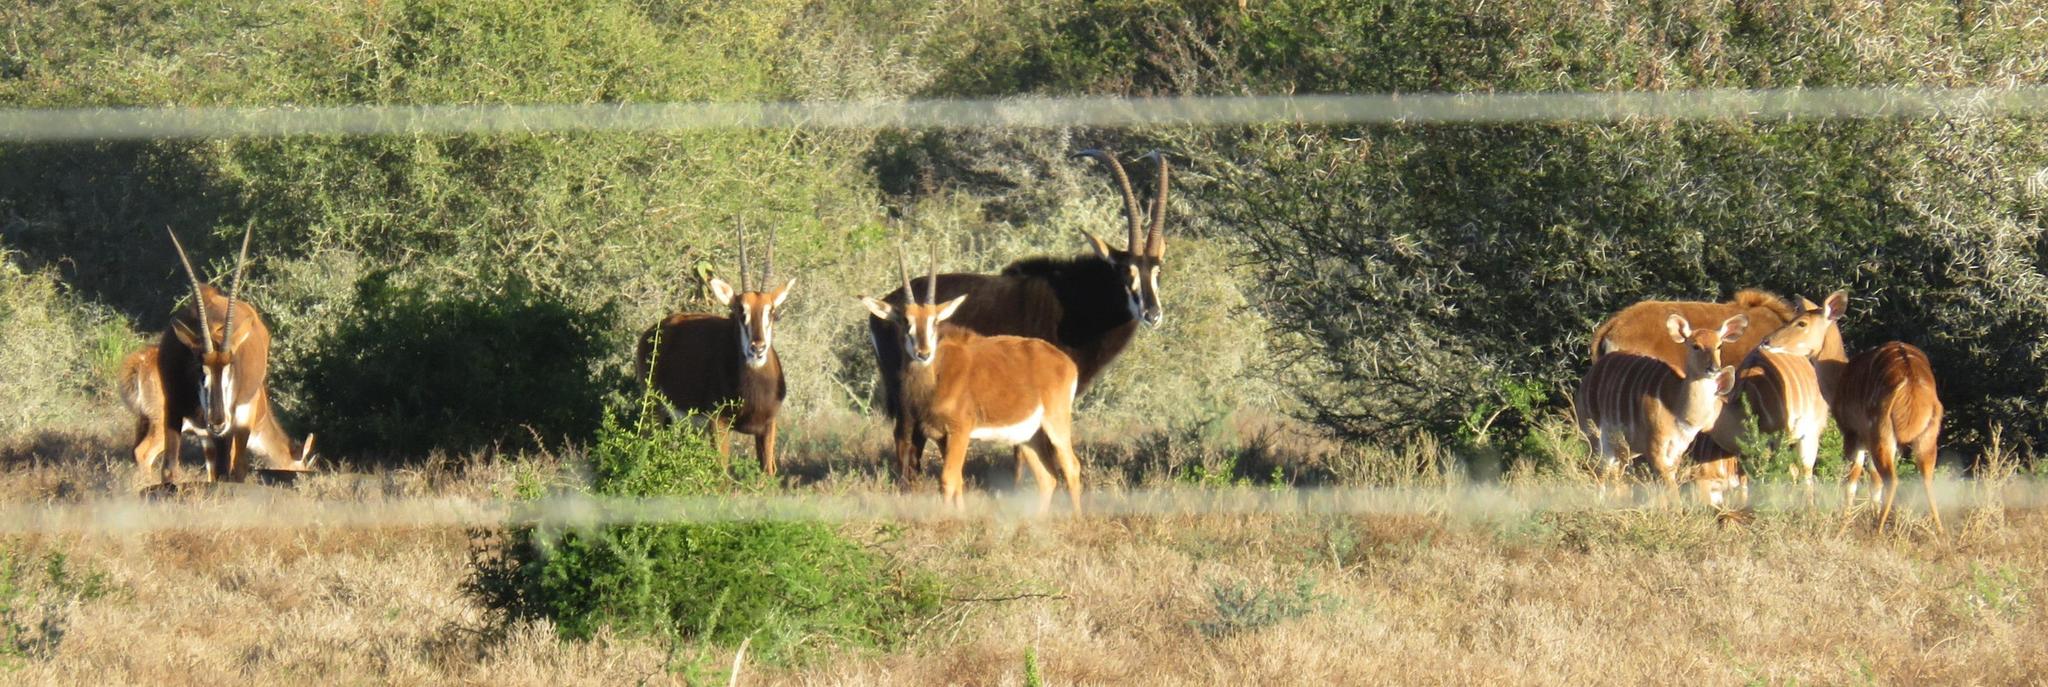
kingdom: Animalia
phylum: Chordata
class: Mammalia
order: Artiodactyla
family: Bovidae
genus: Hippotragus
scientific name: Hippotragus niger
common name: Sable antelope
